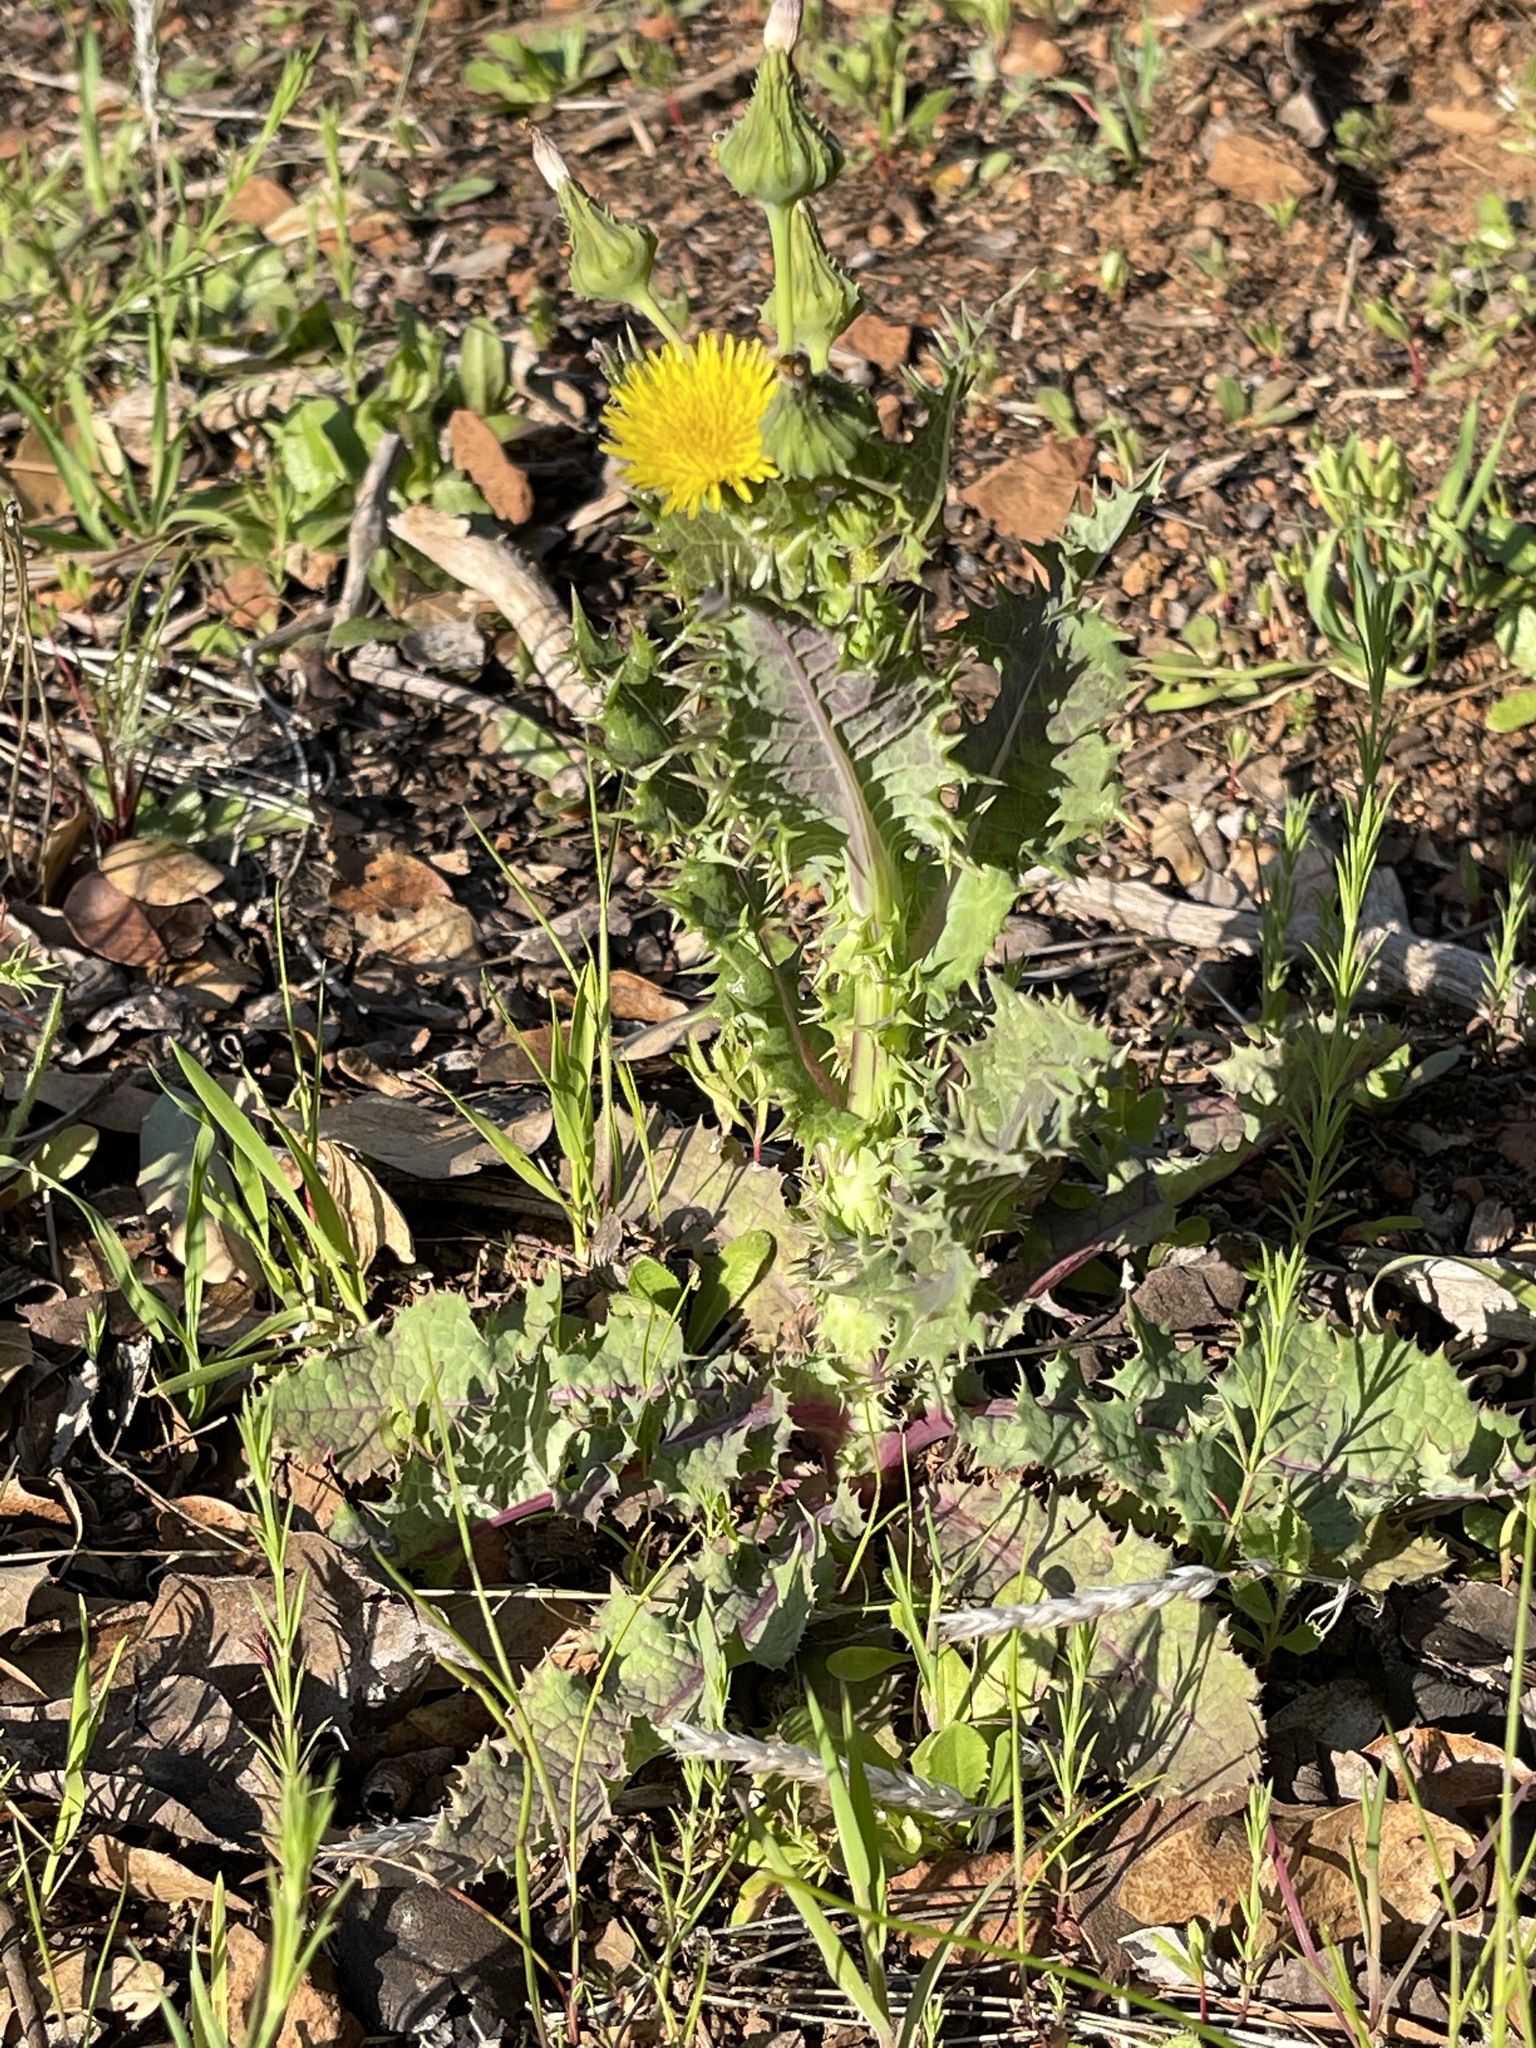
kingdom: Plantae
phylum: Tracheophyta
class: Magnoliopsida
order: Asterales
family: Asteraceae
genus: Sonchus
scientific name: Sonchus asper
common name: Prickly sow-thistle
